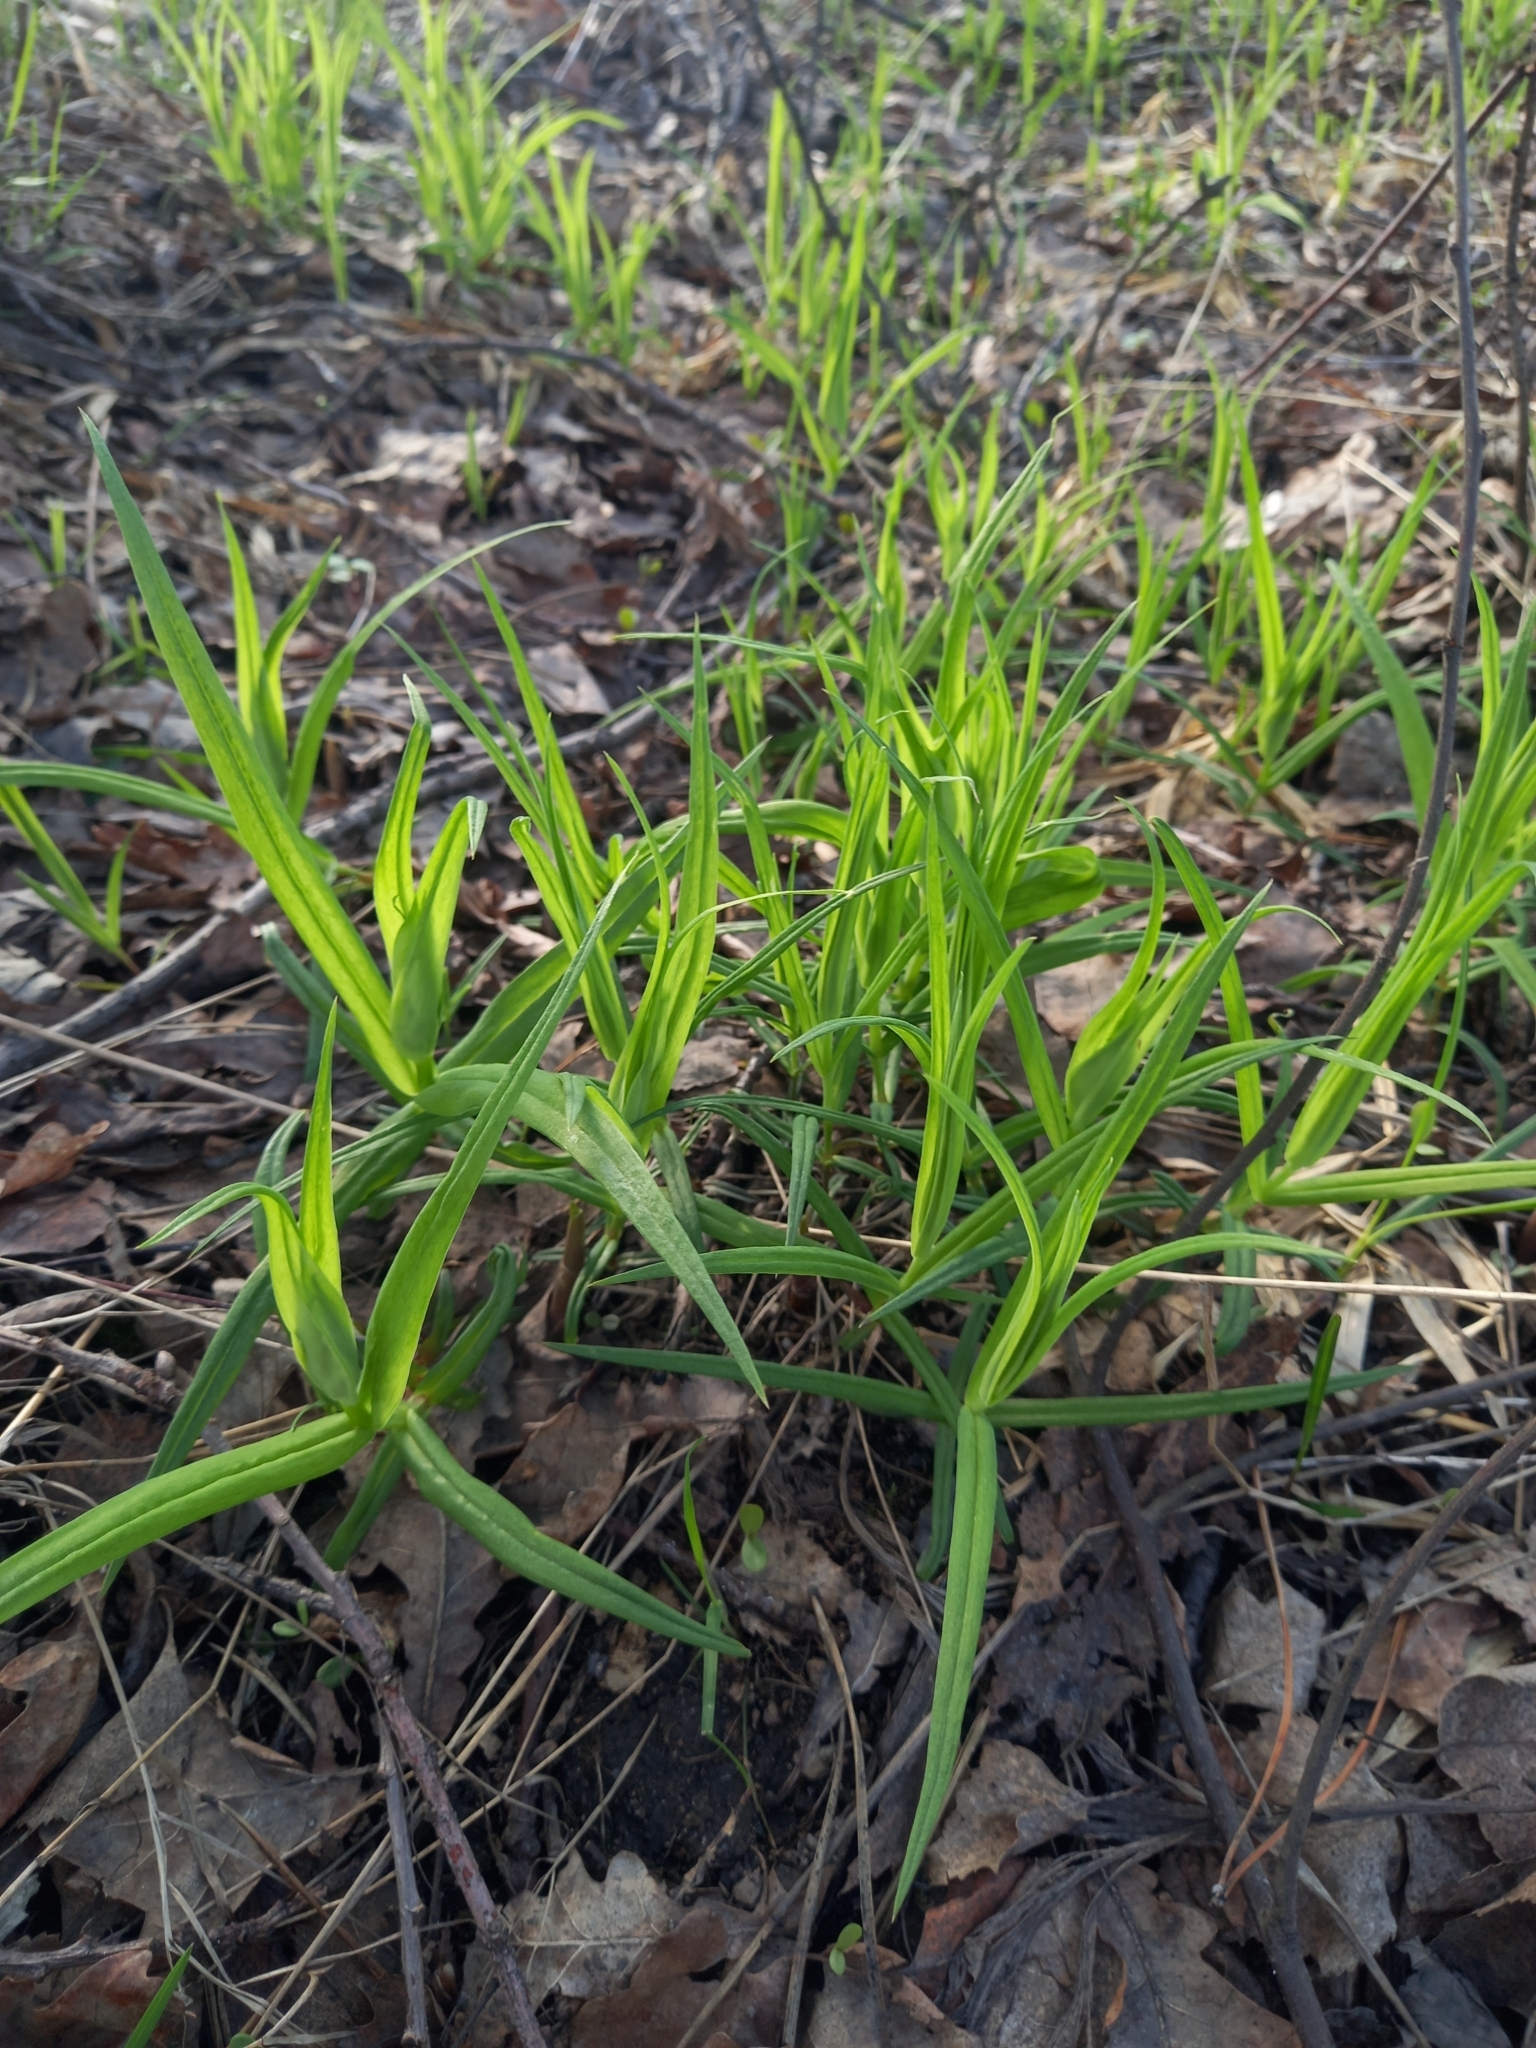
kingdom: Plantae
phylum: Tracheophyta
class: Magnoliopsida
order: Caryophyllales
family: Caryophyllaceae
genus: Rabelera
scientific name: Rabelera holostea
